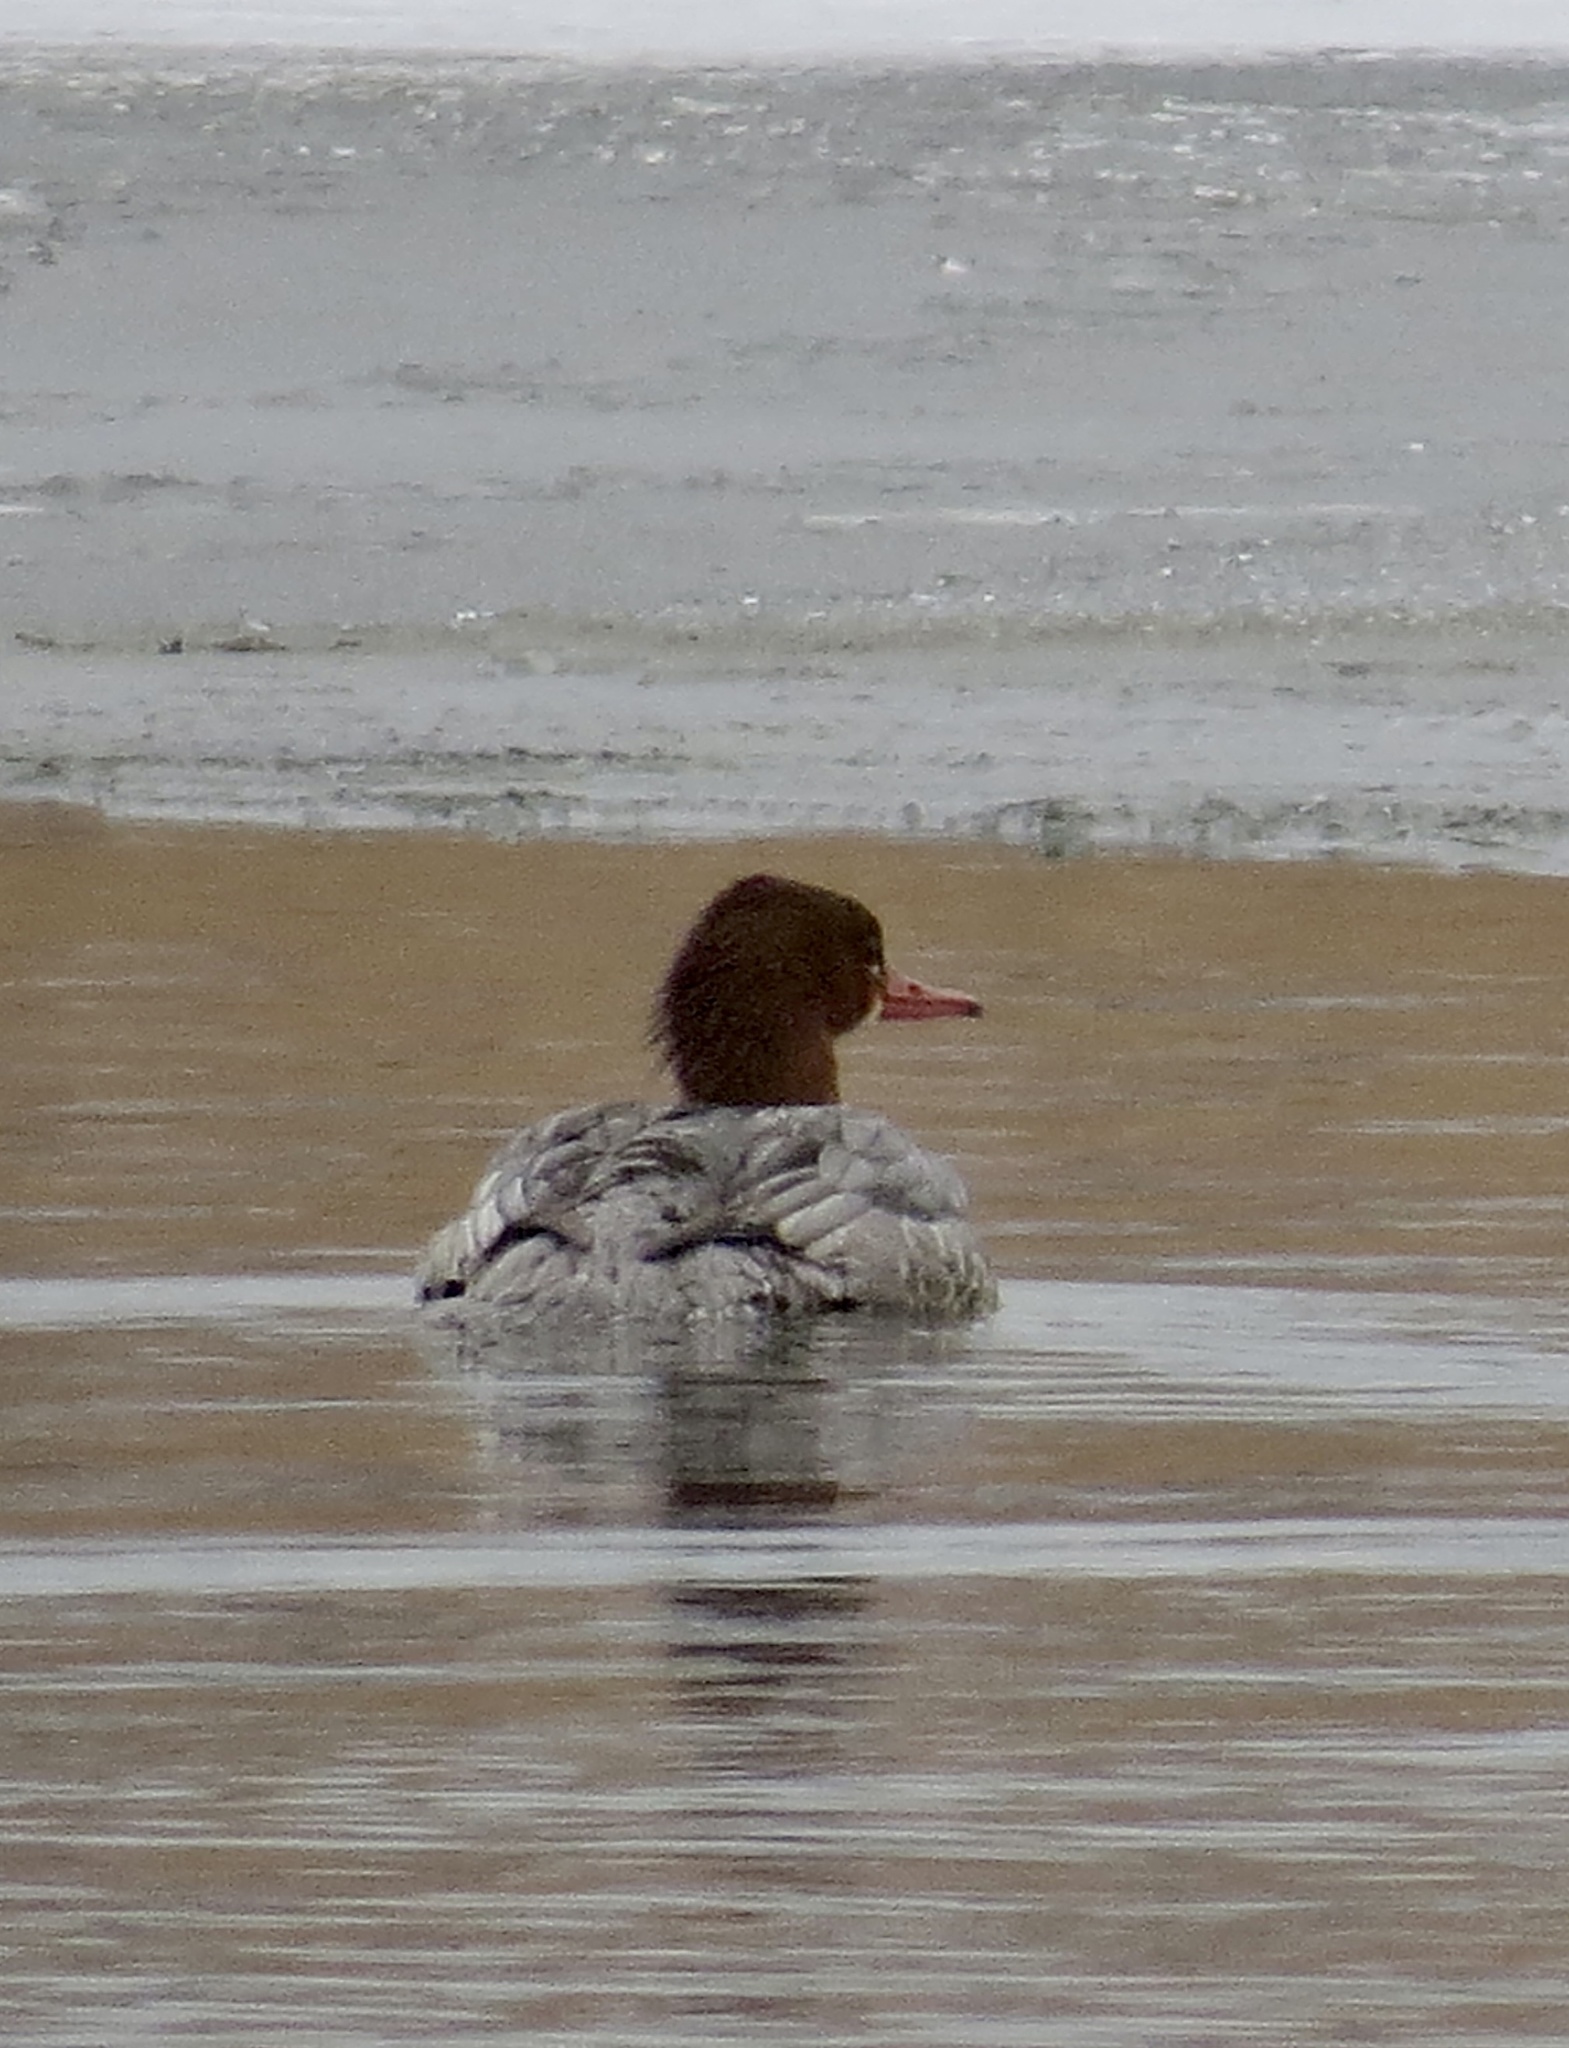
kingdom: Animalia
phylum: Chordata
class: Aves
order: Anseriformes
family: Anatidae
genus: Mergus
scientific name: Mergus merganser
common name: Common merganser
